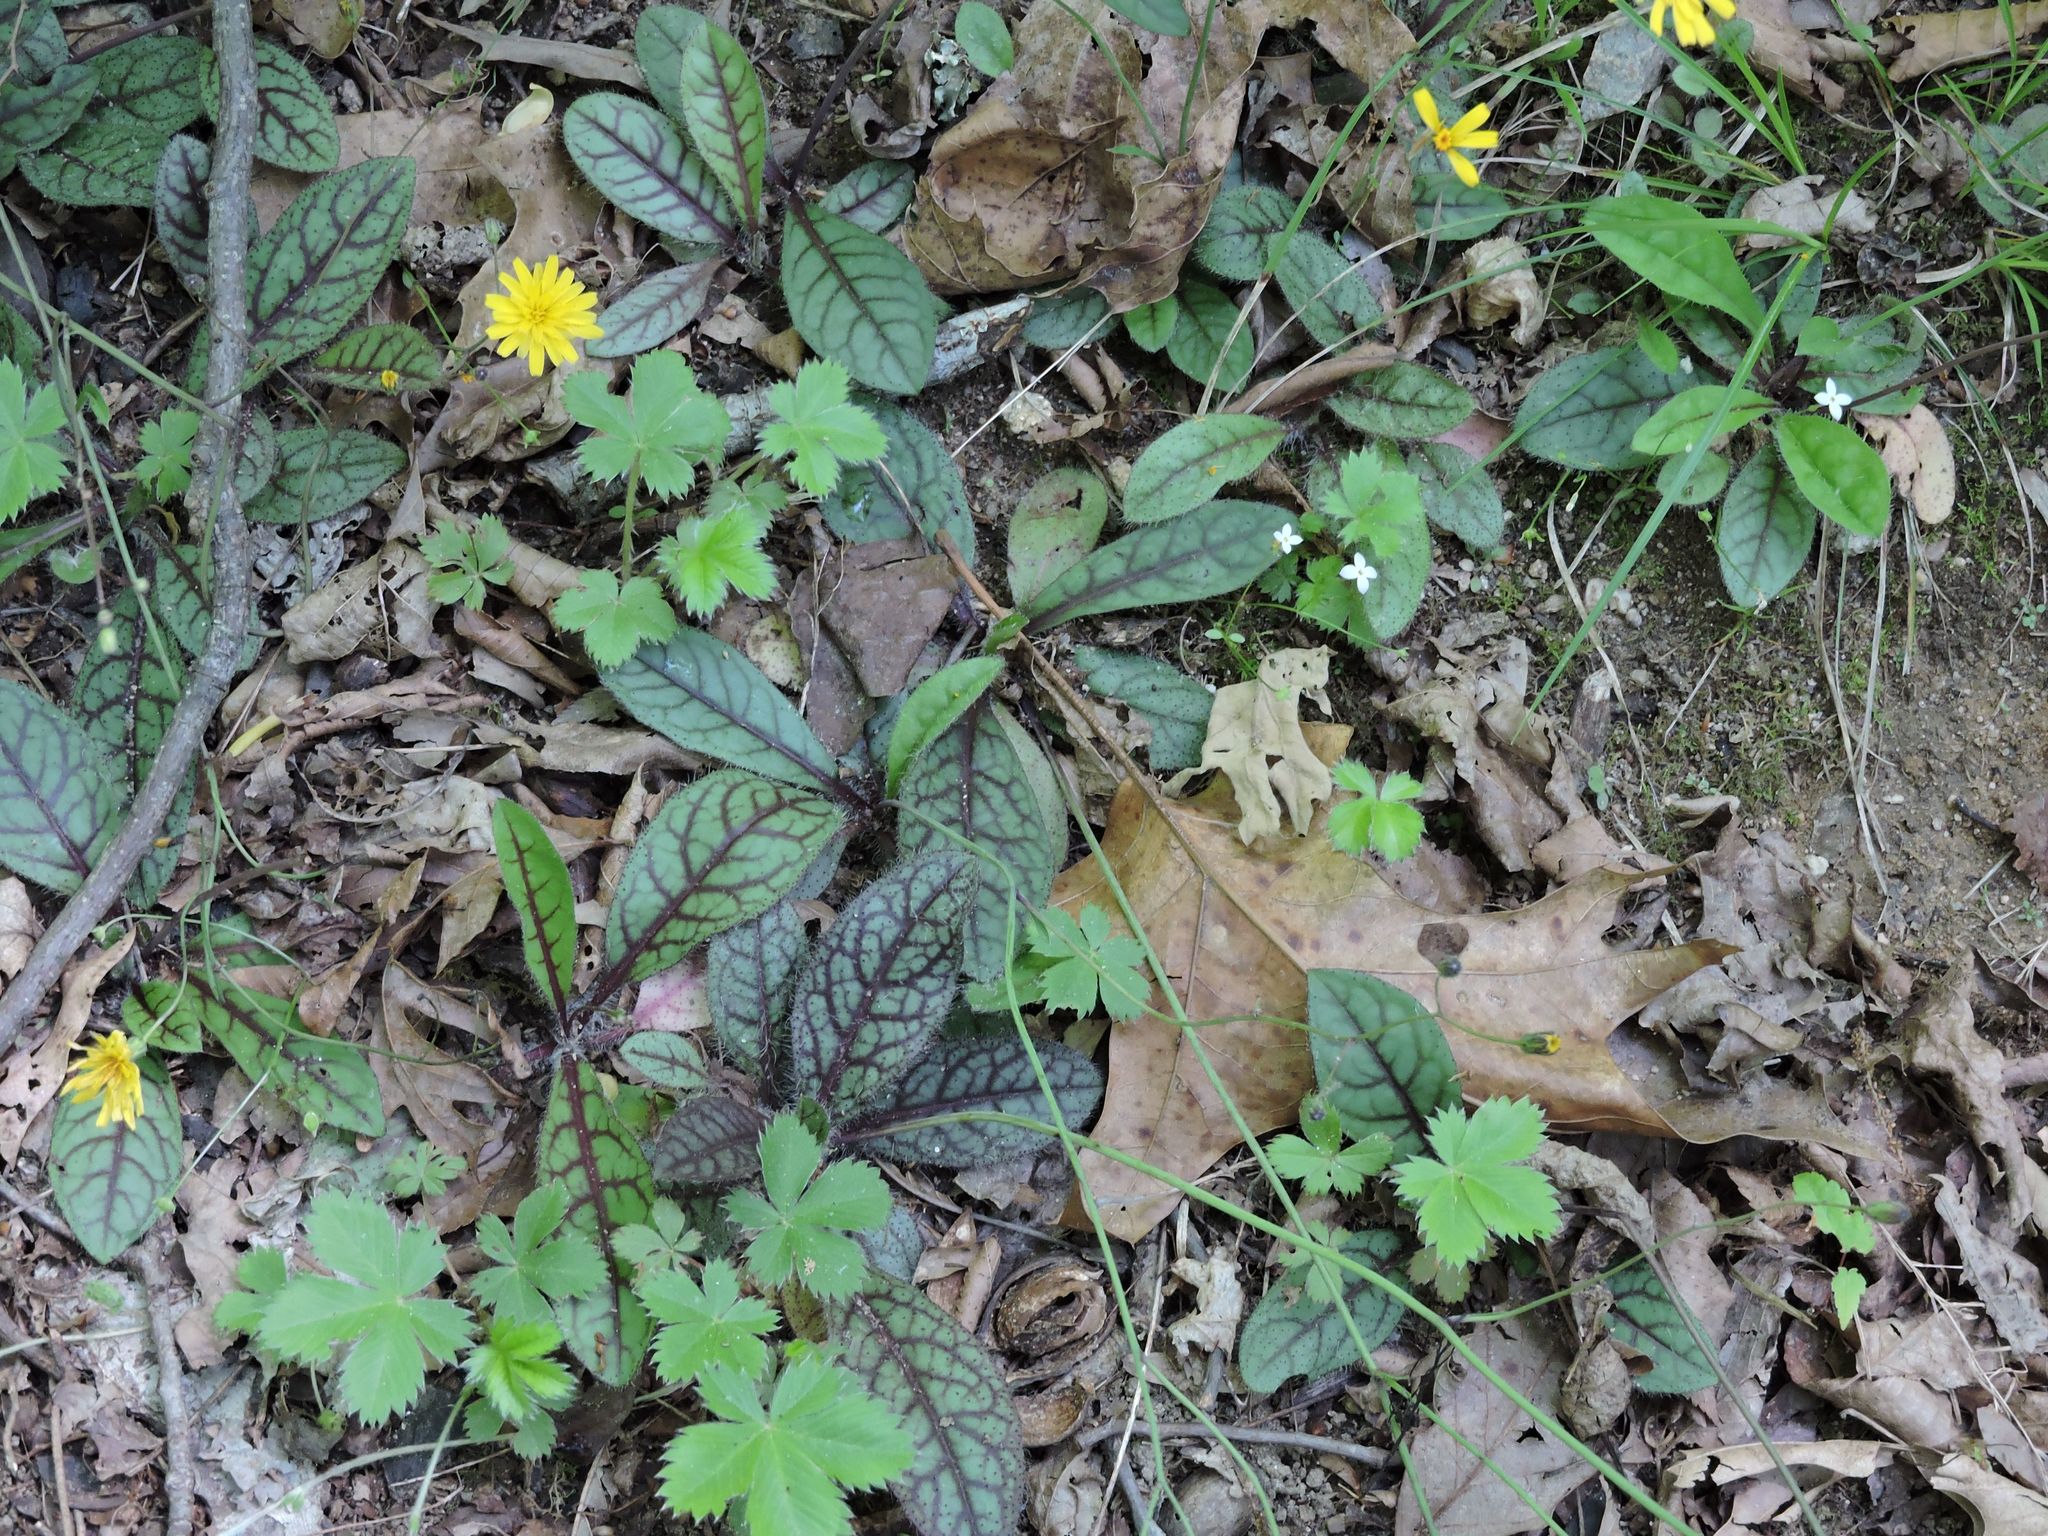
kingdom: Plantae
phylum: Tracheophyta
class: Magnoliopsida
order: Asterales
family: Asteraceae
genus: Hieracium
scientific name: Hieracium venosum
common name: Rattlesnake hawkweed
